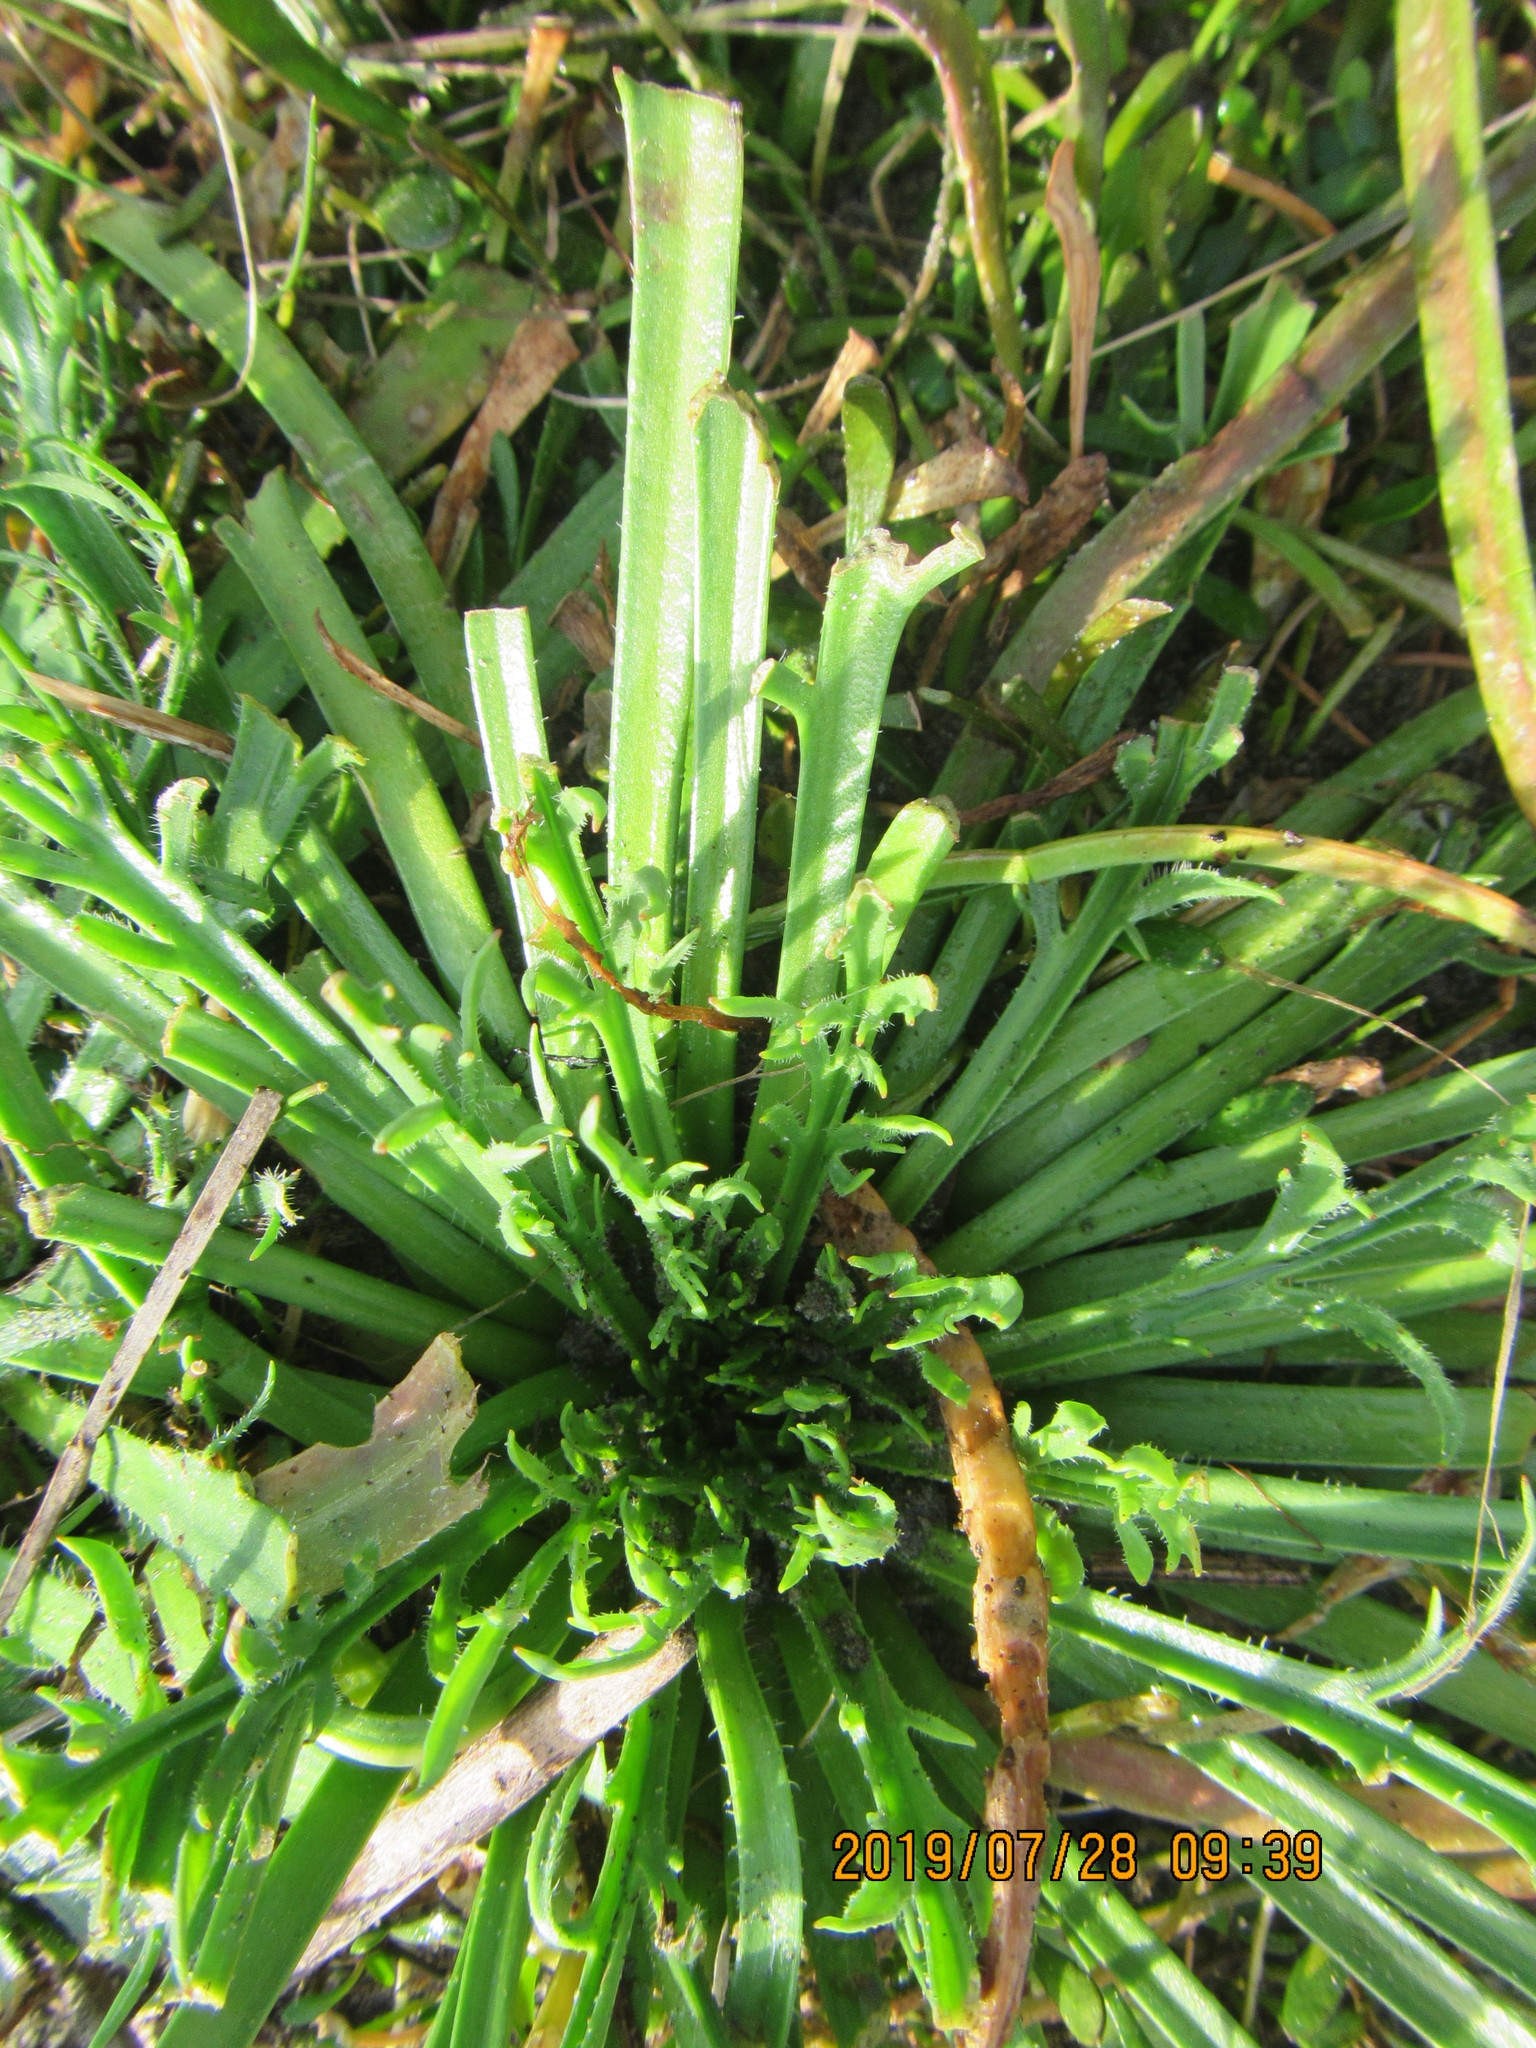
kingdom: Plantae
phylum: Tracheophyta
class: Magnoliopsida
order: Lamiales
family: Plantaginaceae
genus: Plantago
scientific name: Plantago coronopus
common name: Buck's-horn plantain
